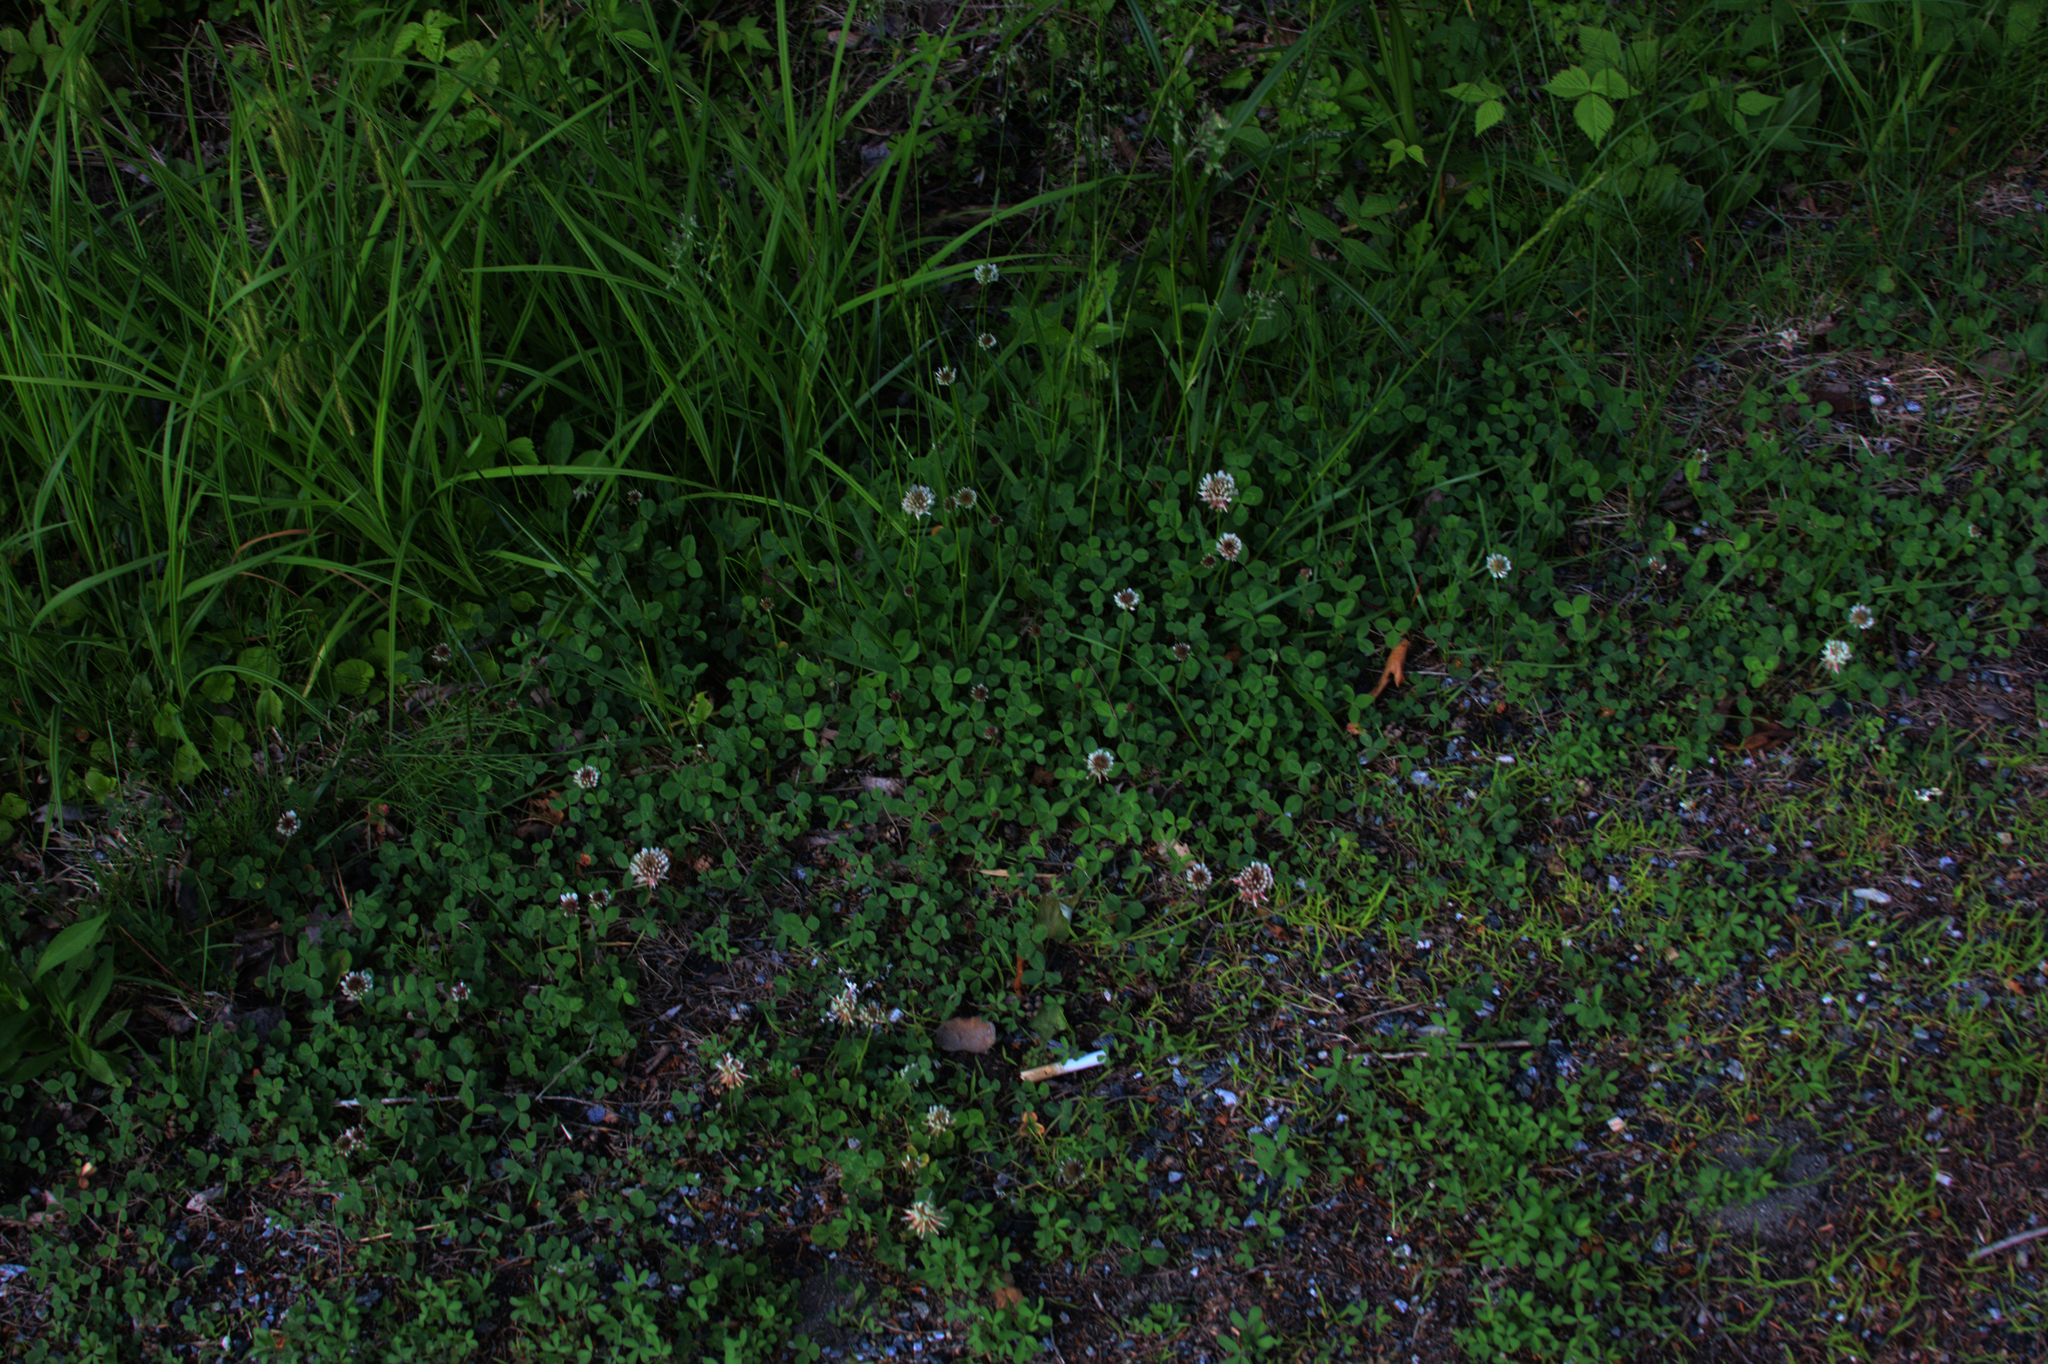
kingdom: Plantae
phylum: Tracheophyta
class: Magnoliopsida
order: Fabales
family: Fabaceae
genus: Trifolium
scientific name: Trifolium repens
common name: White clover
